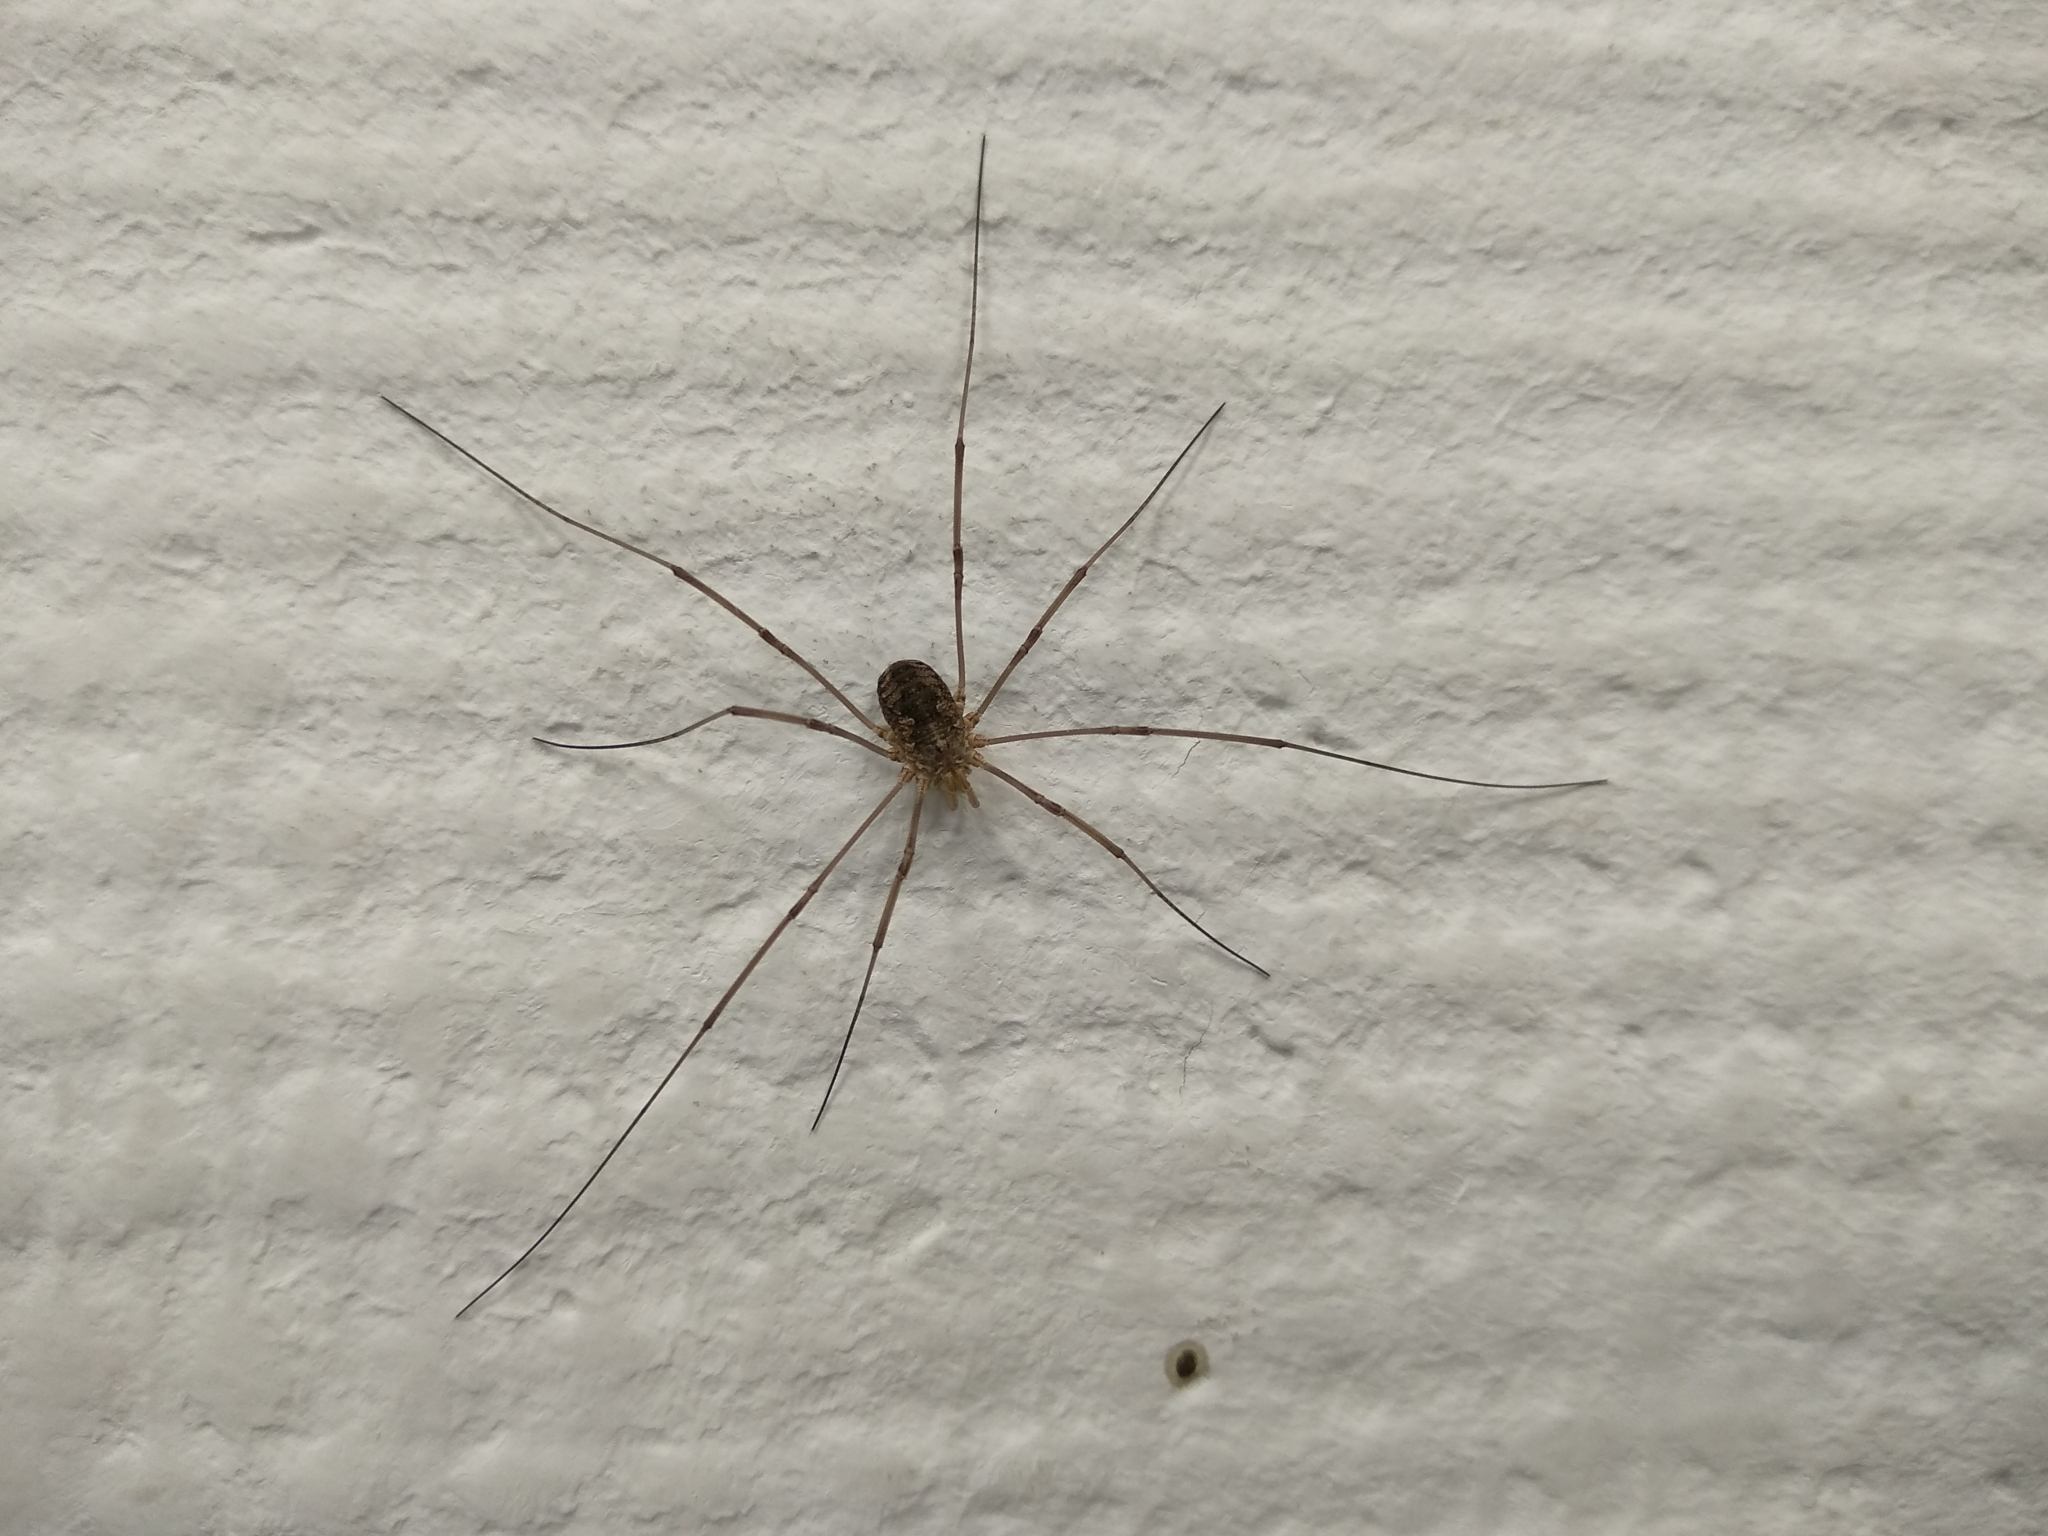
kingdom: Animalia
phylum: Arthropoda
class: Arachnida
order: Opiliones
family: Phalangiidae
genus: Phalangium
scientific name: Phalangium opilio
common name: Daddy longleg
